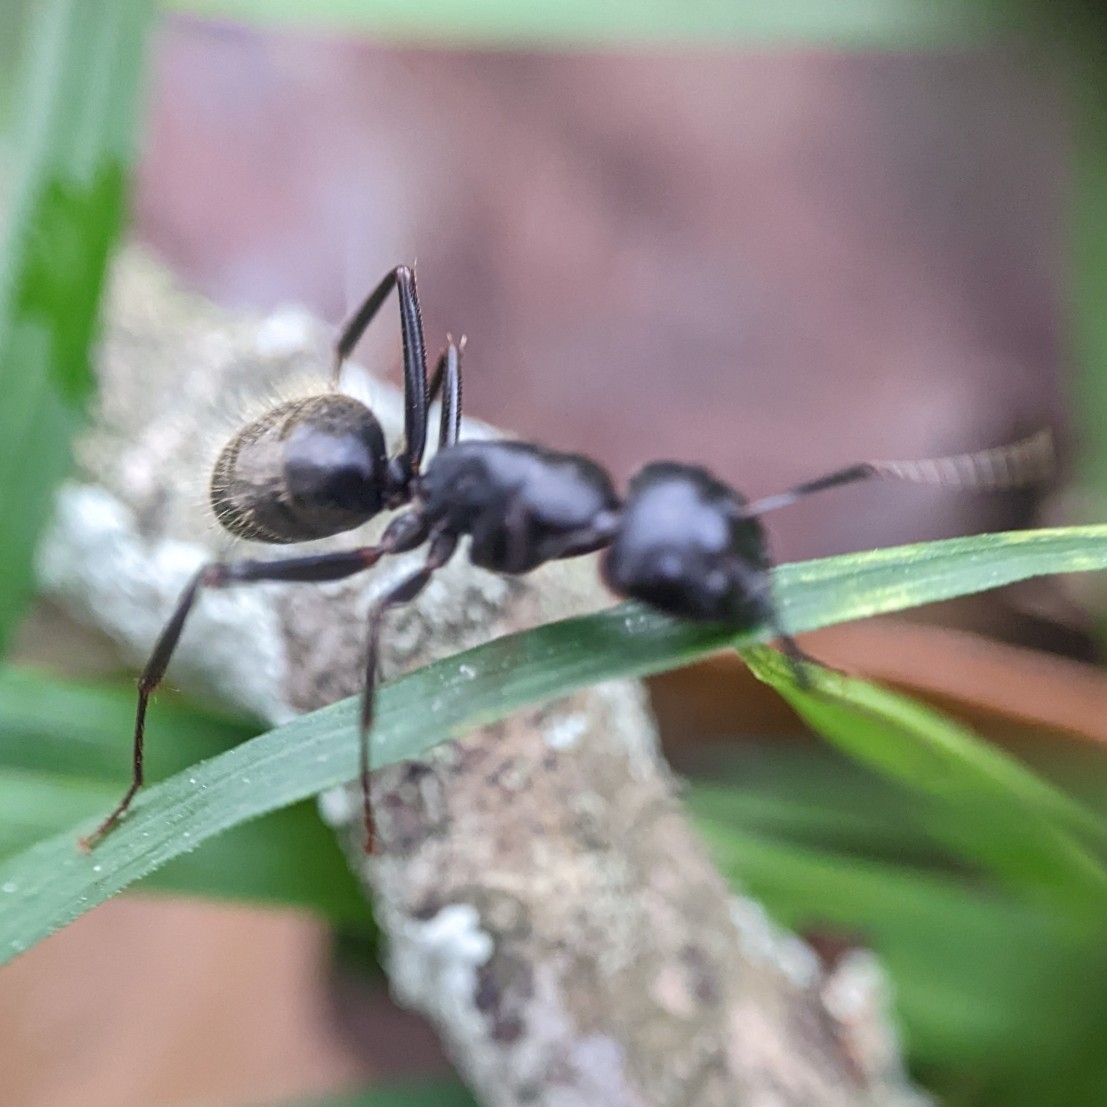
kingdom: Animalia
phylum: Arthropoda
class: Insecta
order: Hymenoptera
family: Formicidae
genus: Camponotus
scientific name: Camponotus pennsylvanicus
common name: Black carpenter ant
